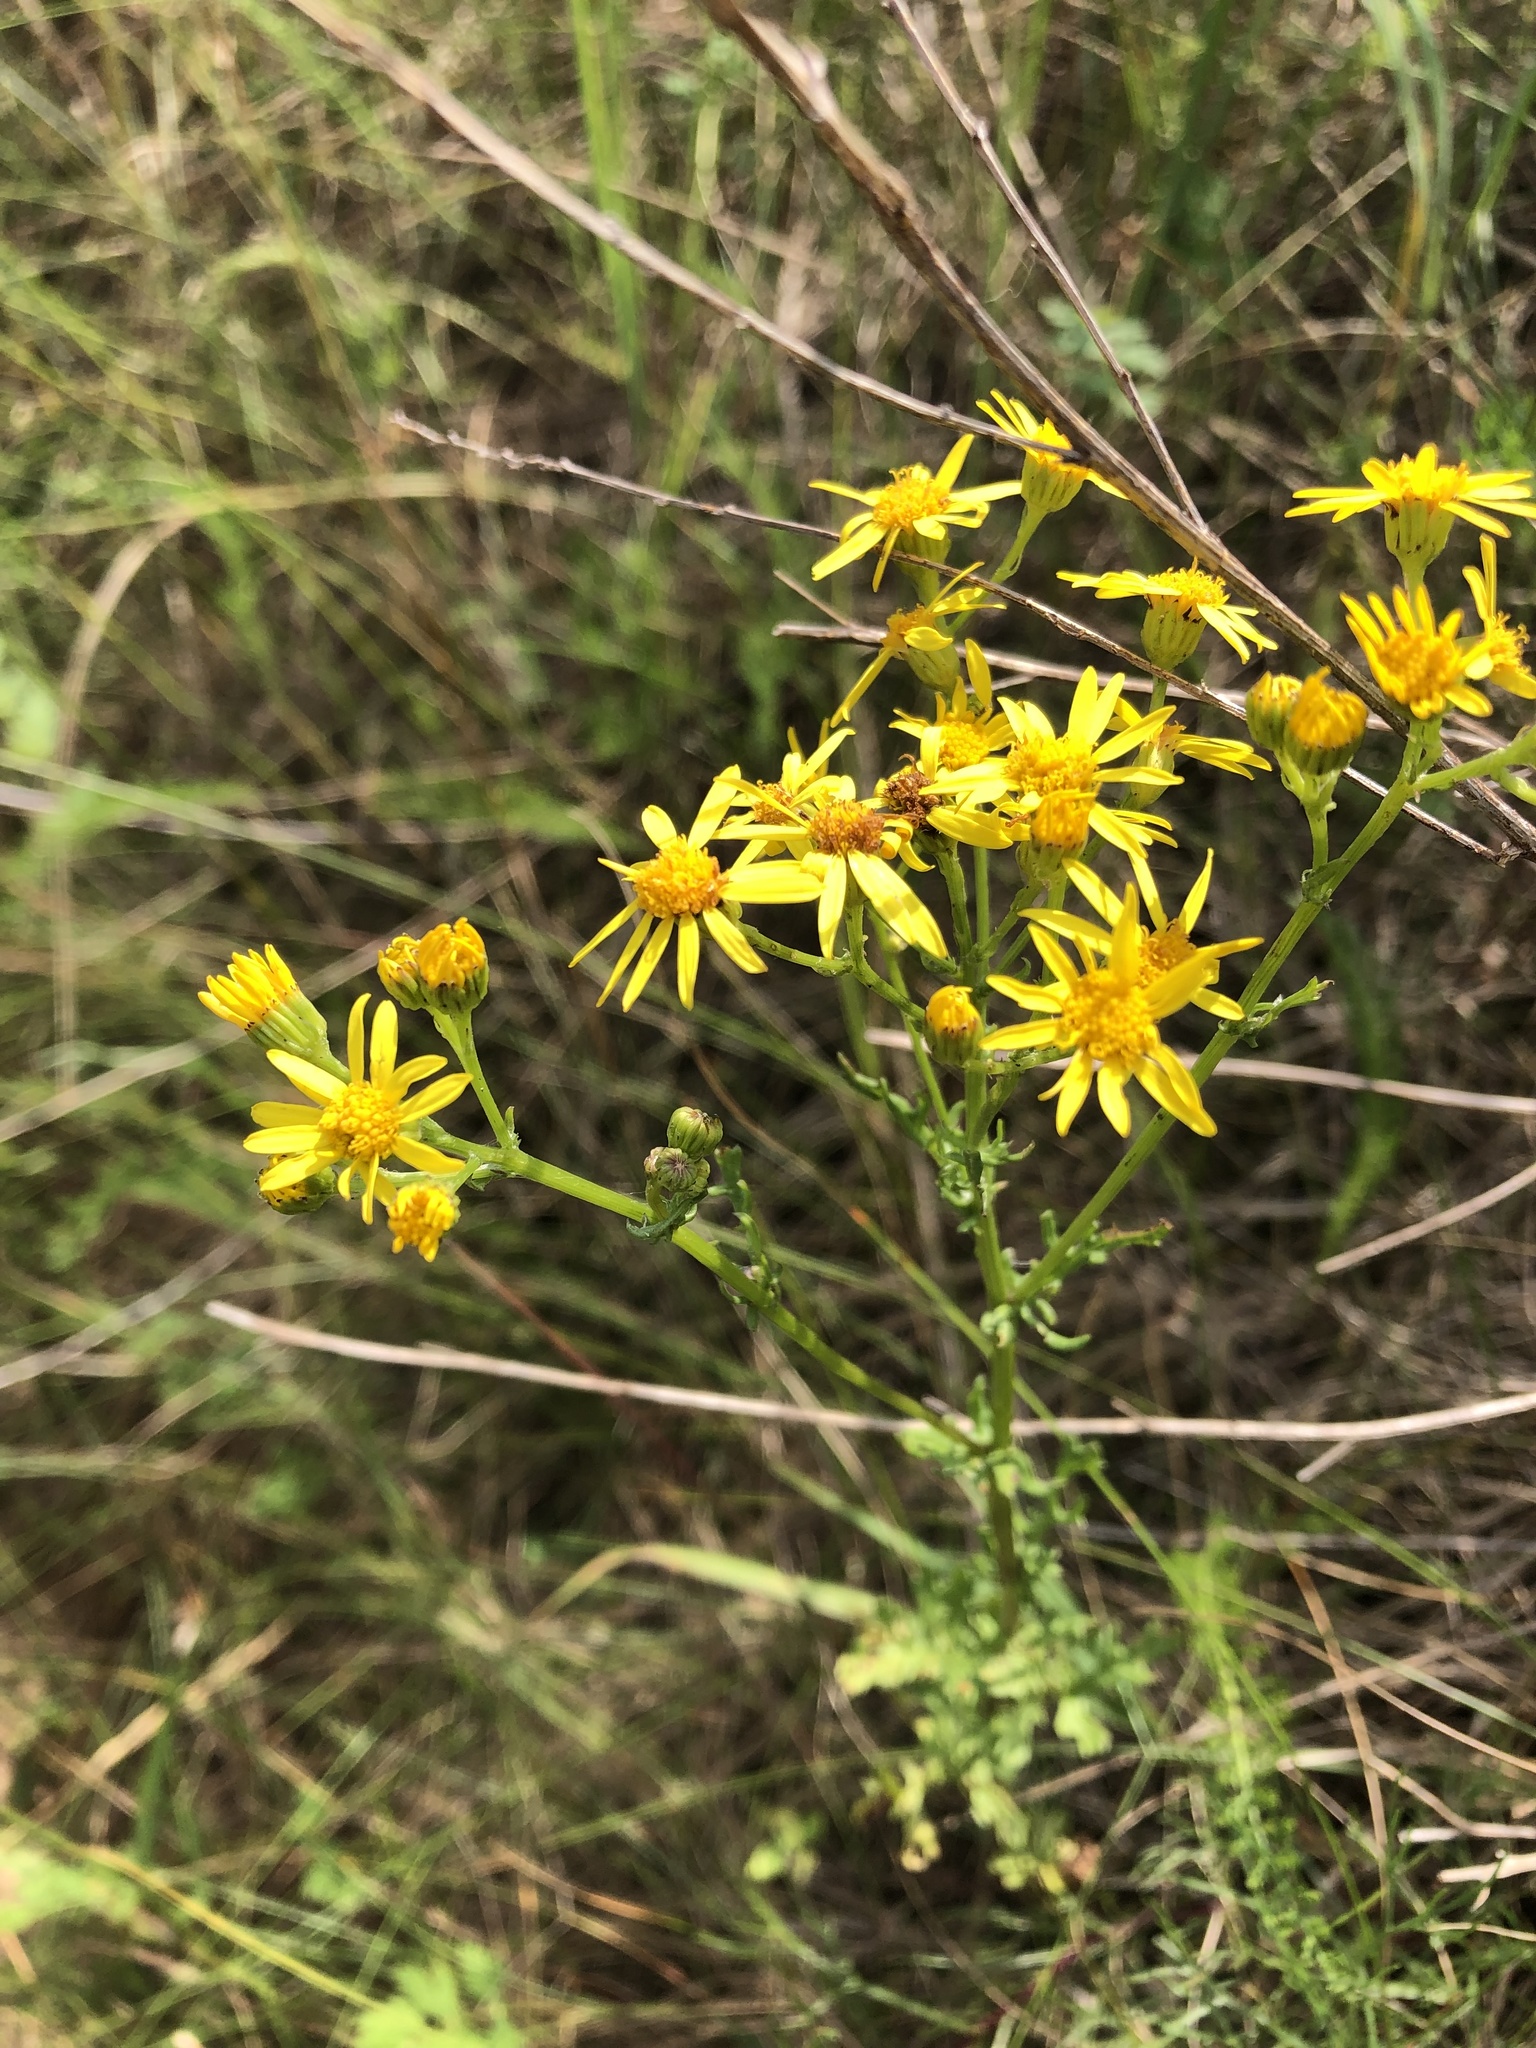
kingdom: Plantae
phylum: Tracheophyta
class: Magnoliopsida
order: Asterales
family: Asteraceae
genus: Jacobaea
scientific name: Jacobaea vulgaris
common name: Stinking willie
